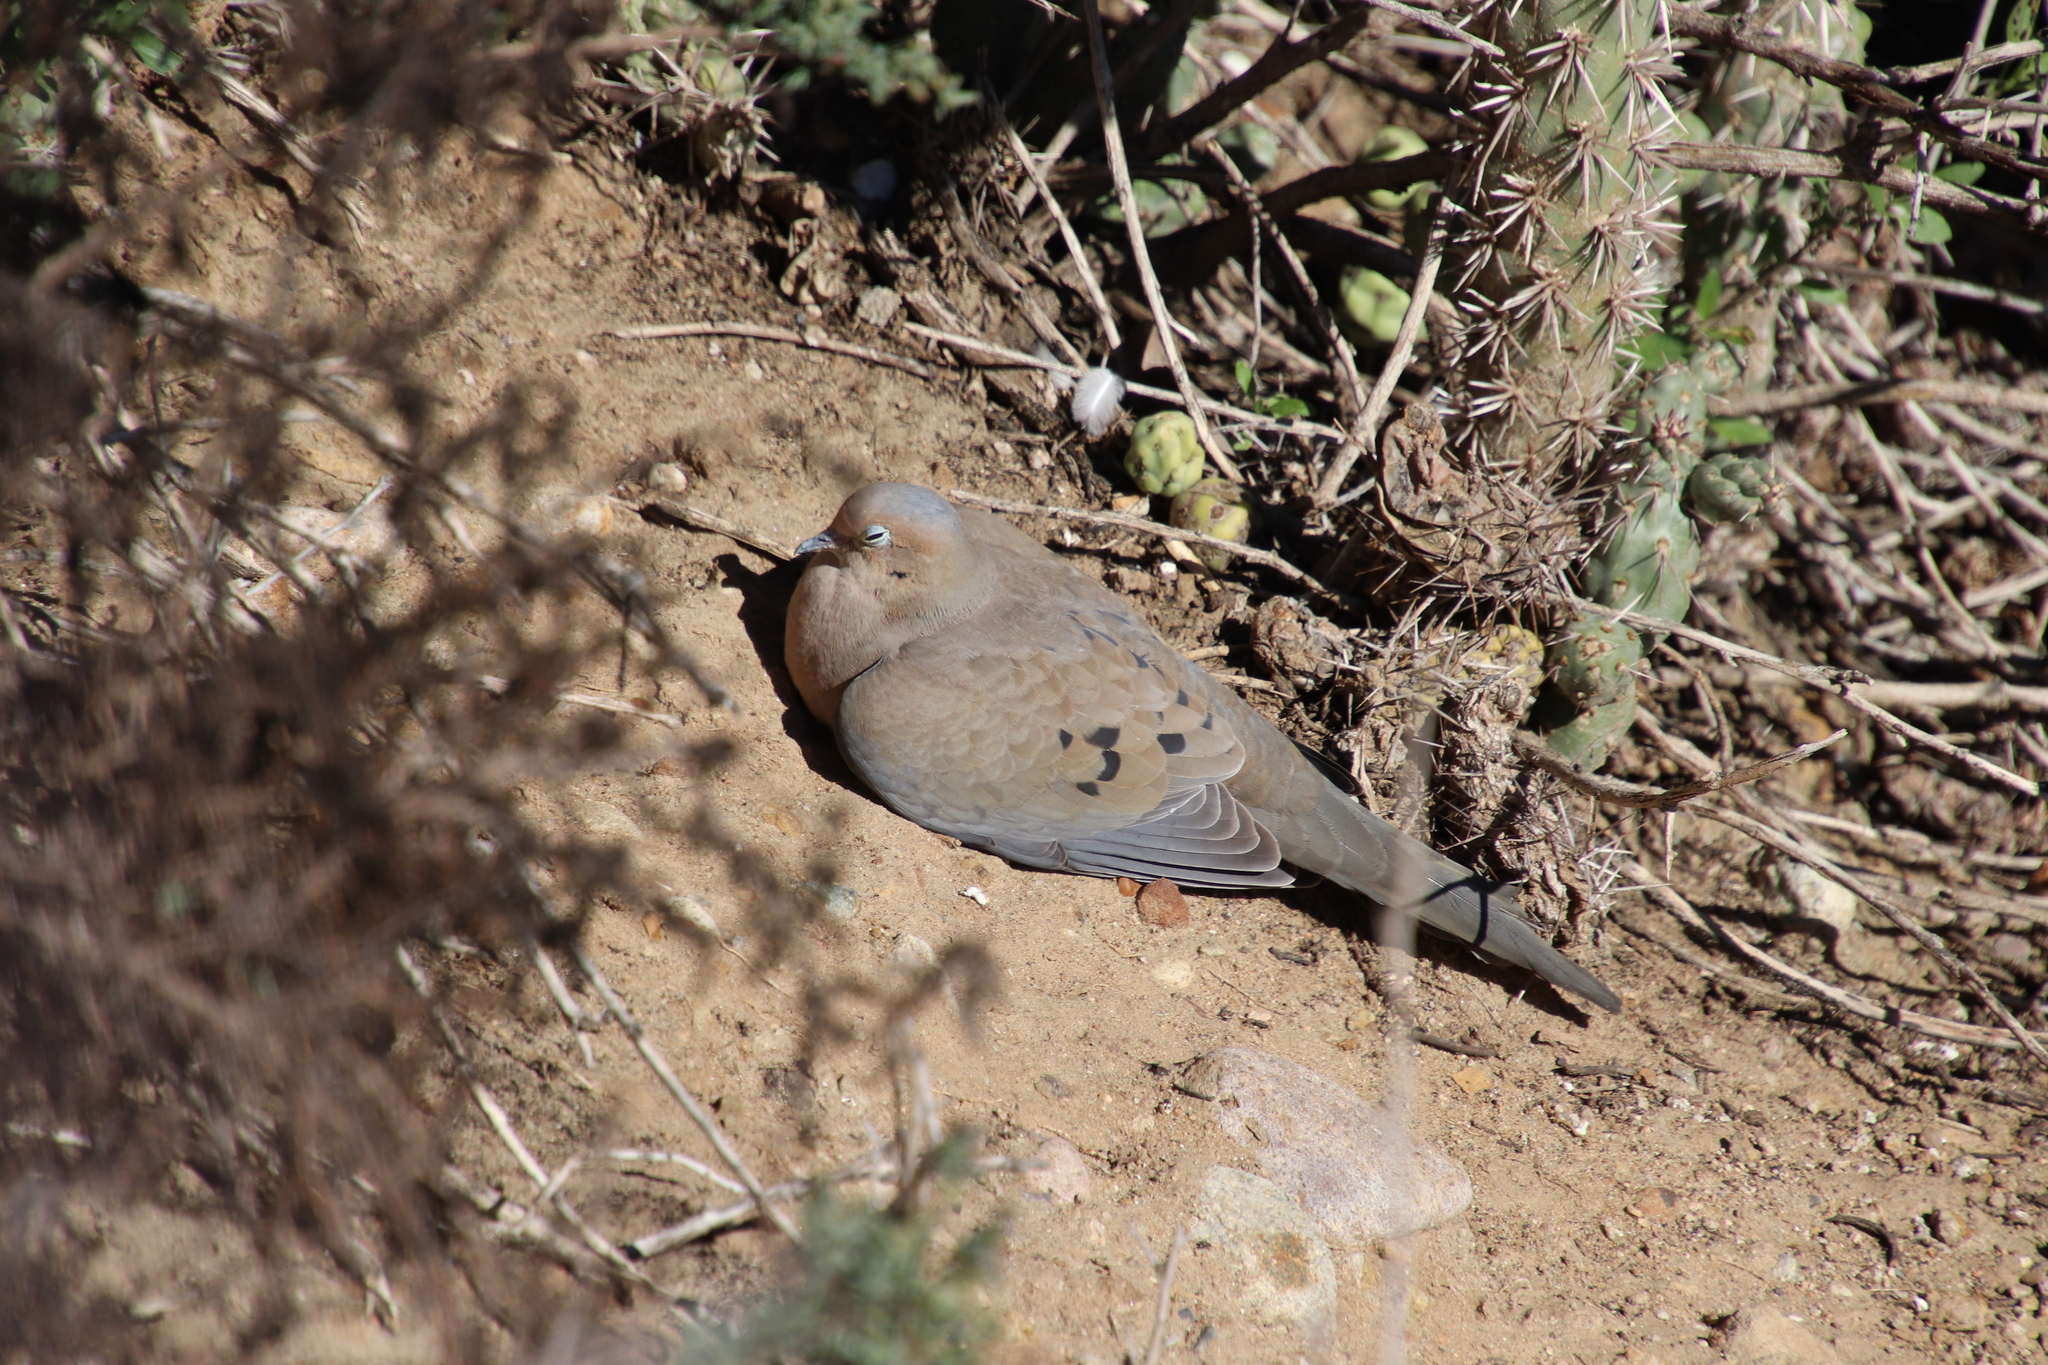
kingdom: Animalia
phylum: Chordata
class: Aves
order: Columbiformes
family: Columbidae
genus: Zenaida
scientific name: Zenaida macroura
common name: Mourning dove
